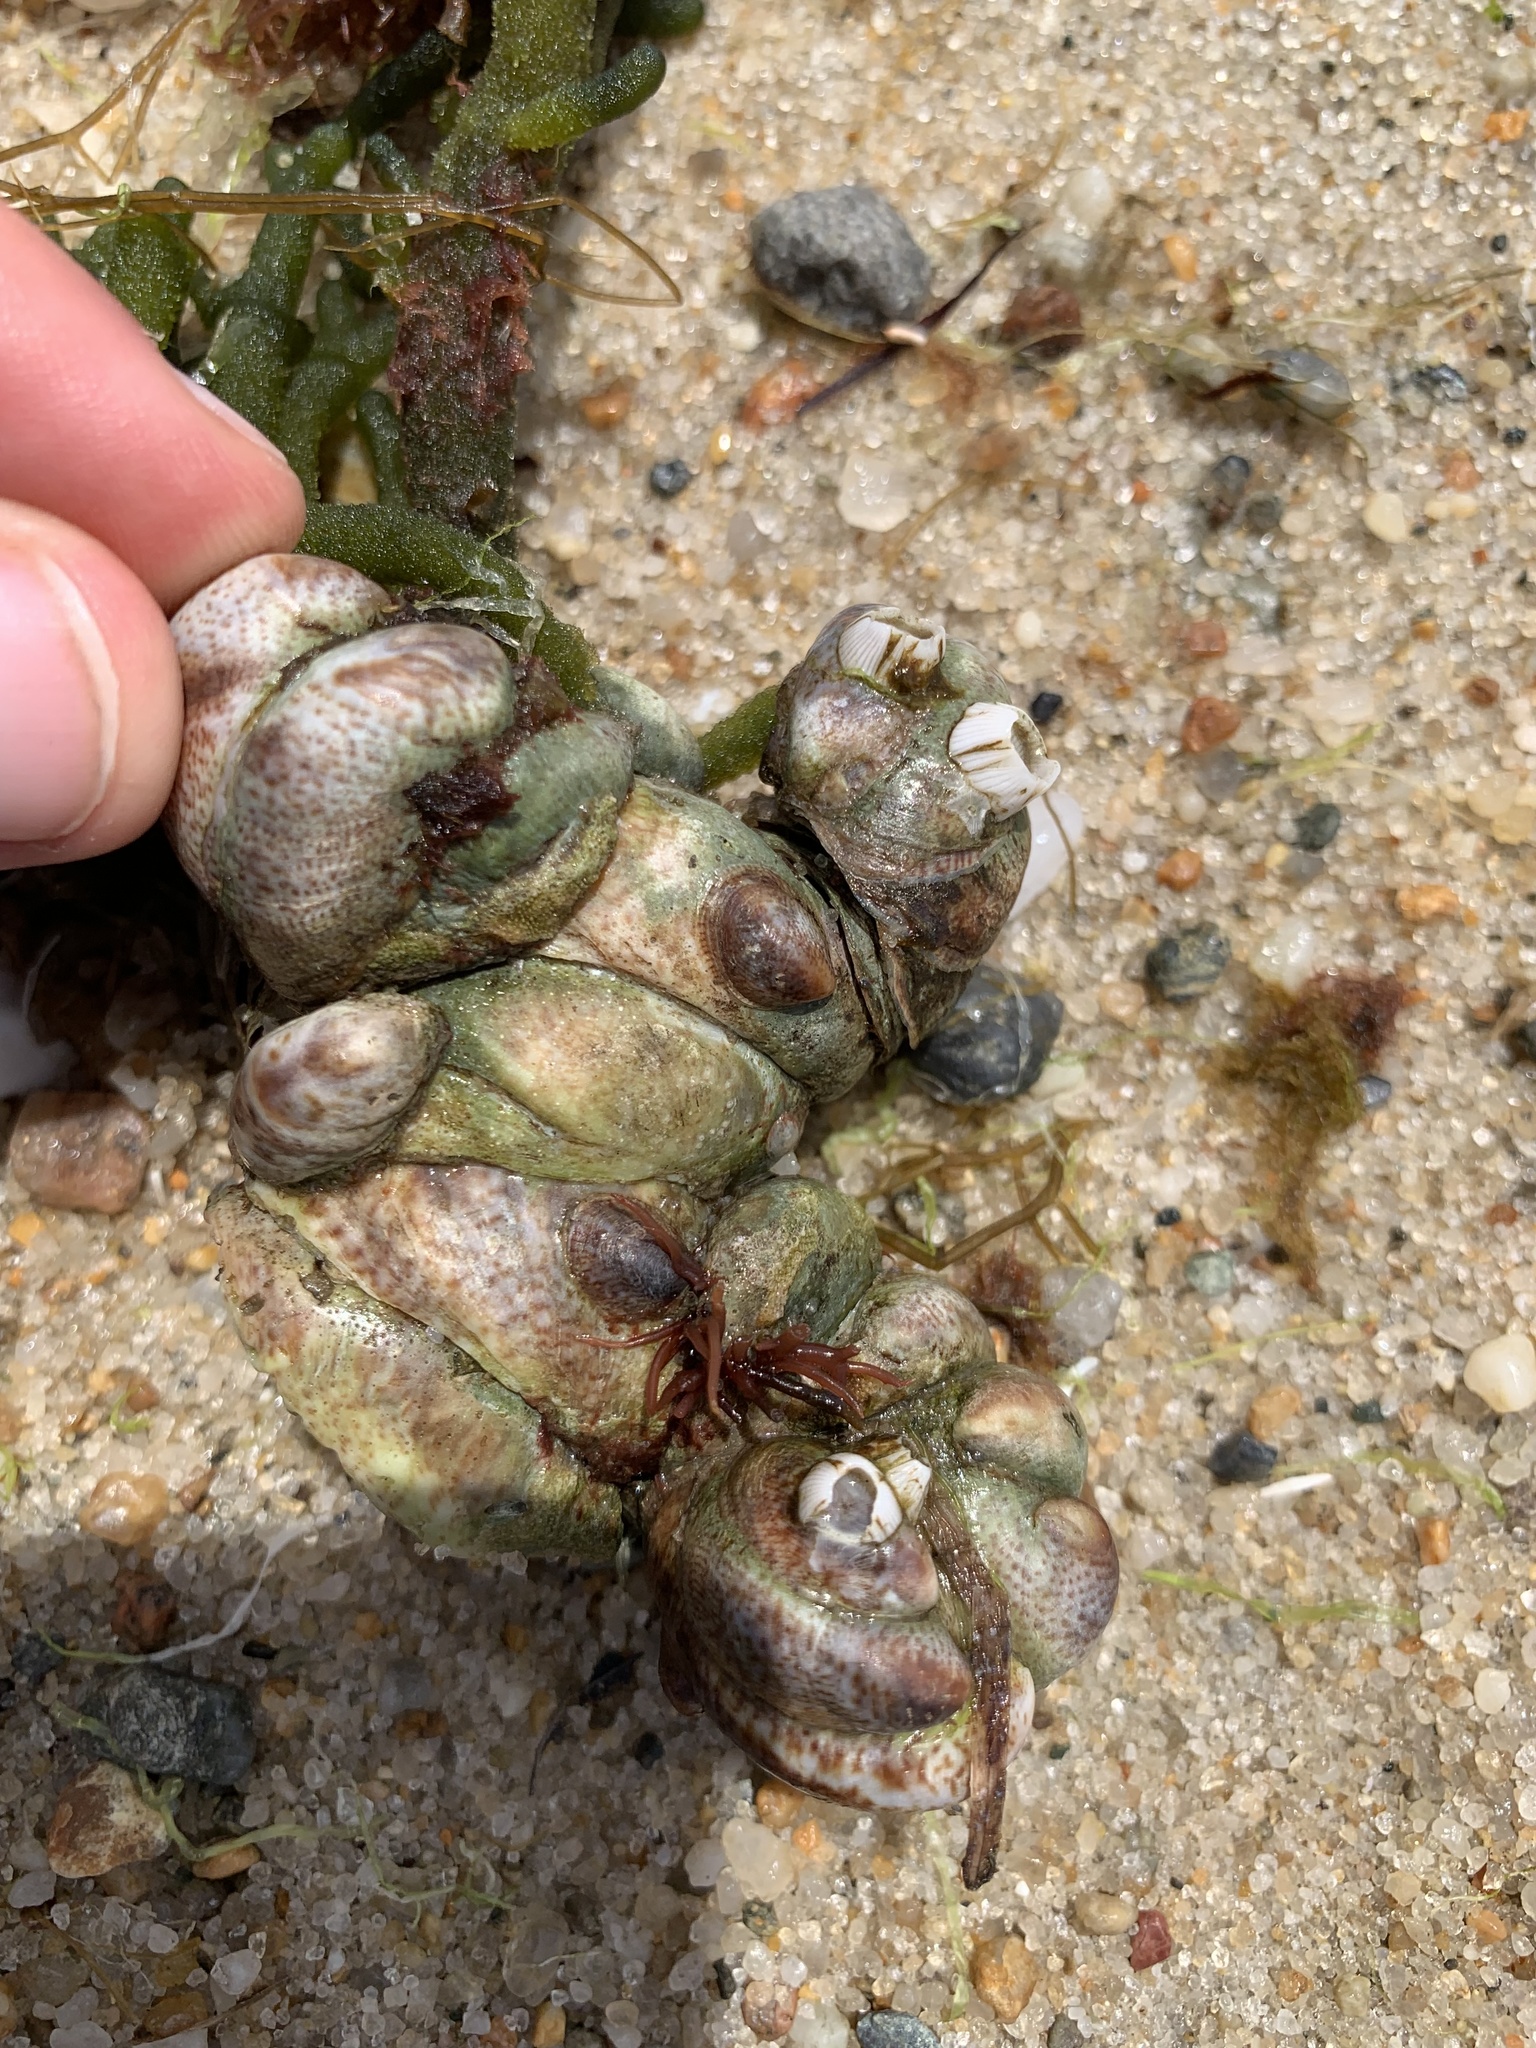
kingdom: Animalia
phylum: Mollusca
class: Gastropoda
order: Littorinimorpha
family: Calyptraeidae
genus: Crepidula
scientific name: Crepidula fornicata
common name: Slipper limpet
